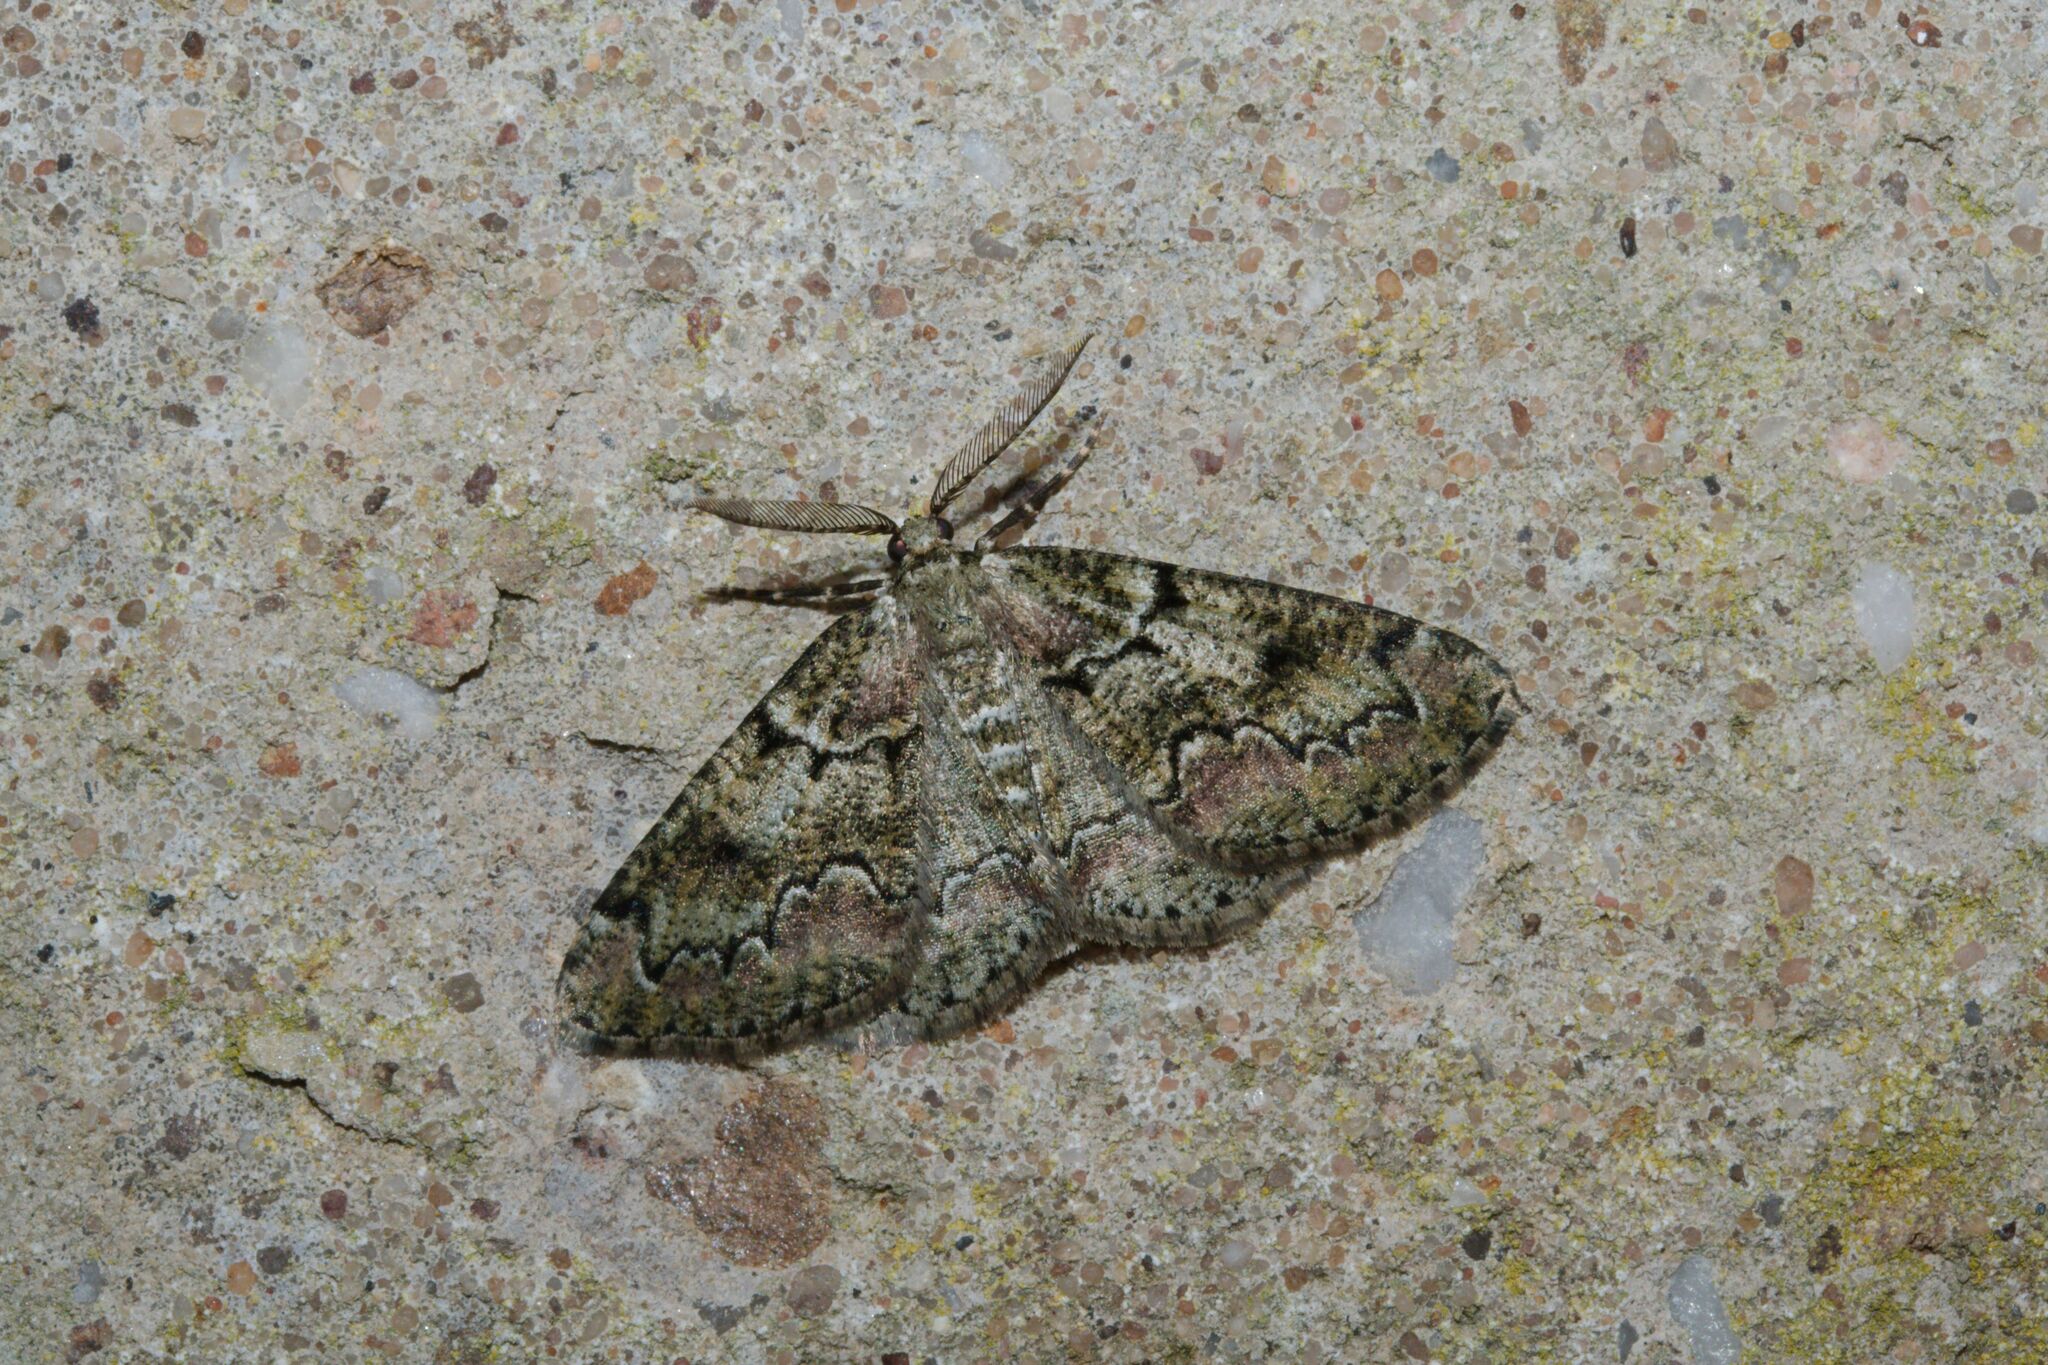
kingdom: Animalia
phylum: Arthropoda
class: Insecta
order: Lepidoptera
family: Geometridae
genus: Cleorodes
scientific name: Cleorodes lichenaria
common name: Brussels lace
